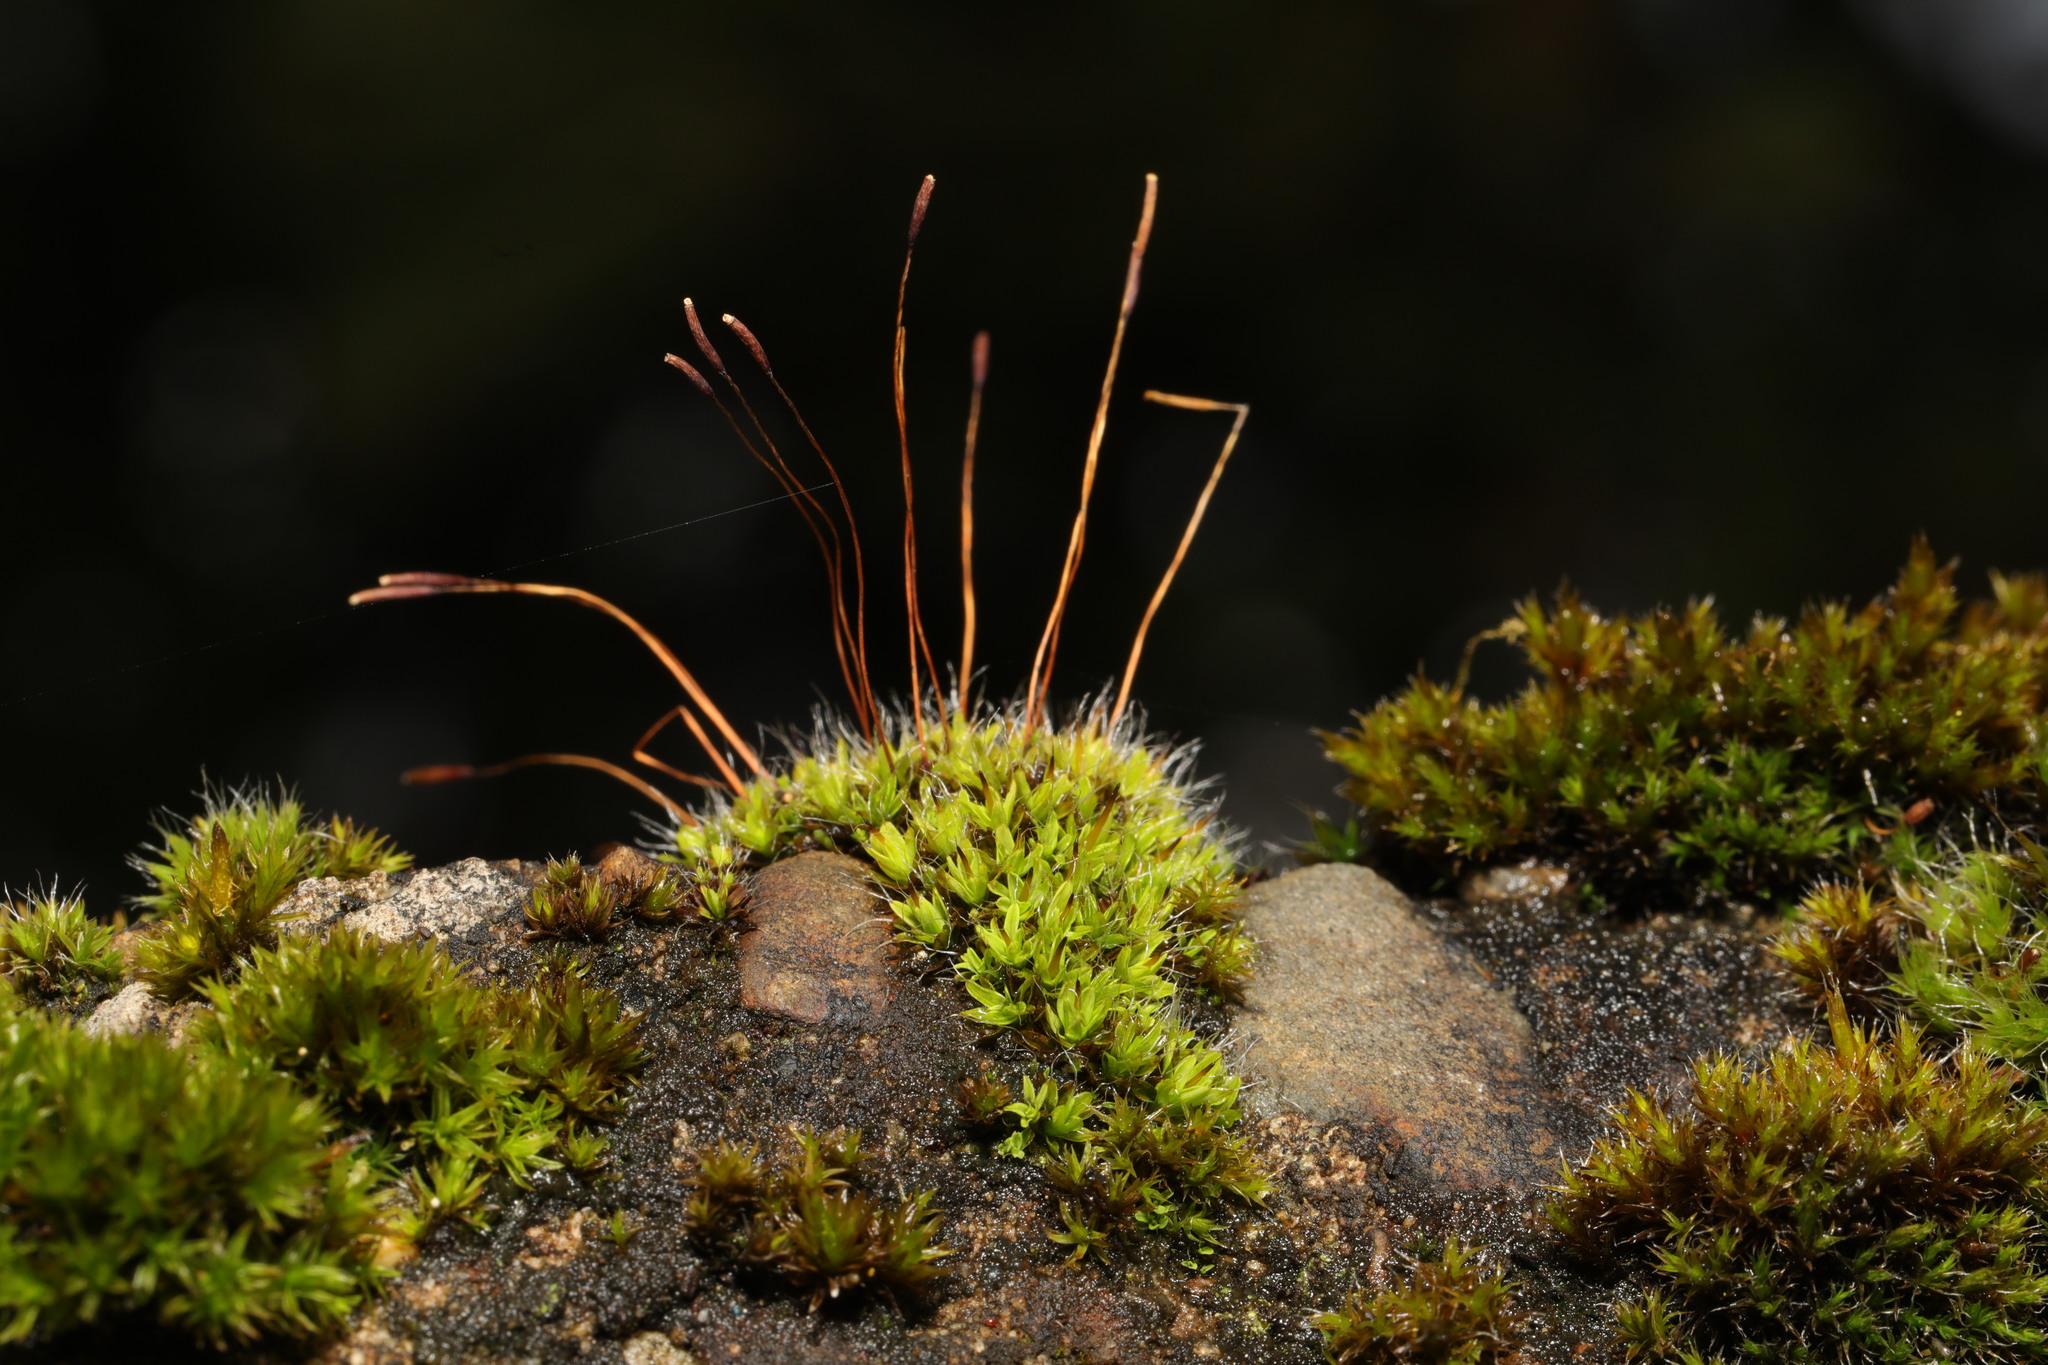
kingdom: Plantae
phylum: Bryophyta
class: Bryopsida
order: Pottiales
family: Pottiaceae
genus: Tortula
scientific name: Tortula muralis
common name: Wall screw-moss
